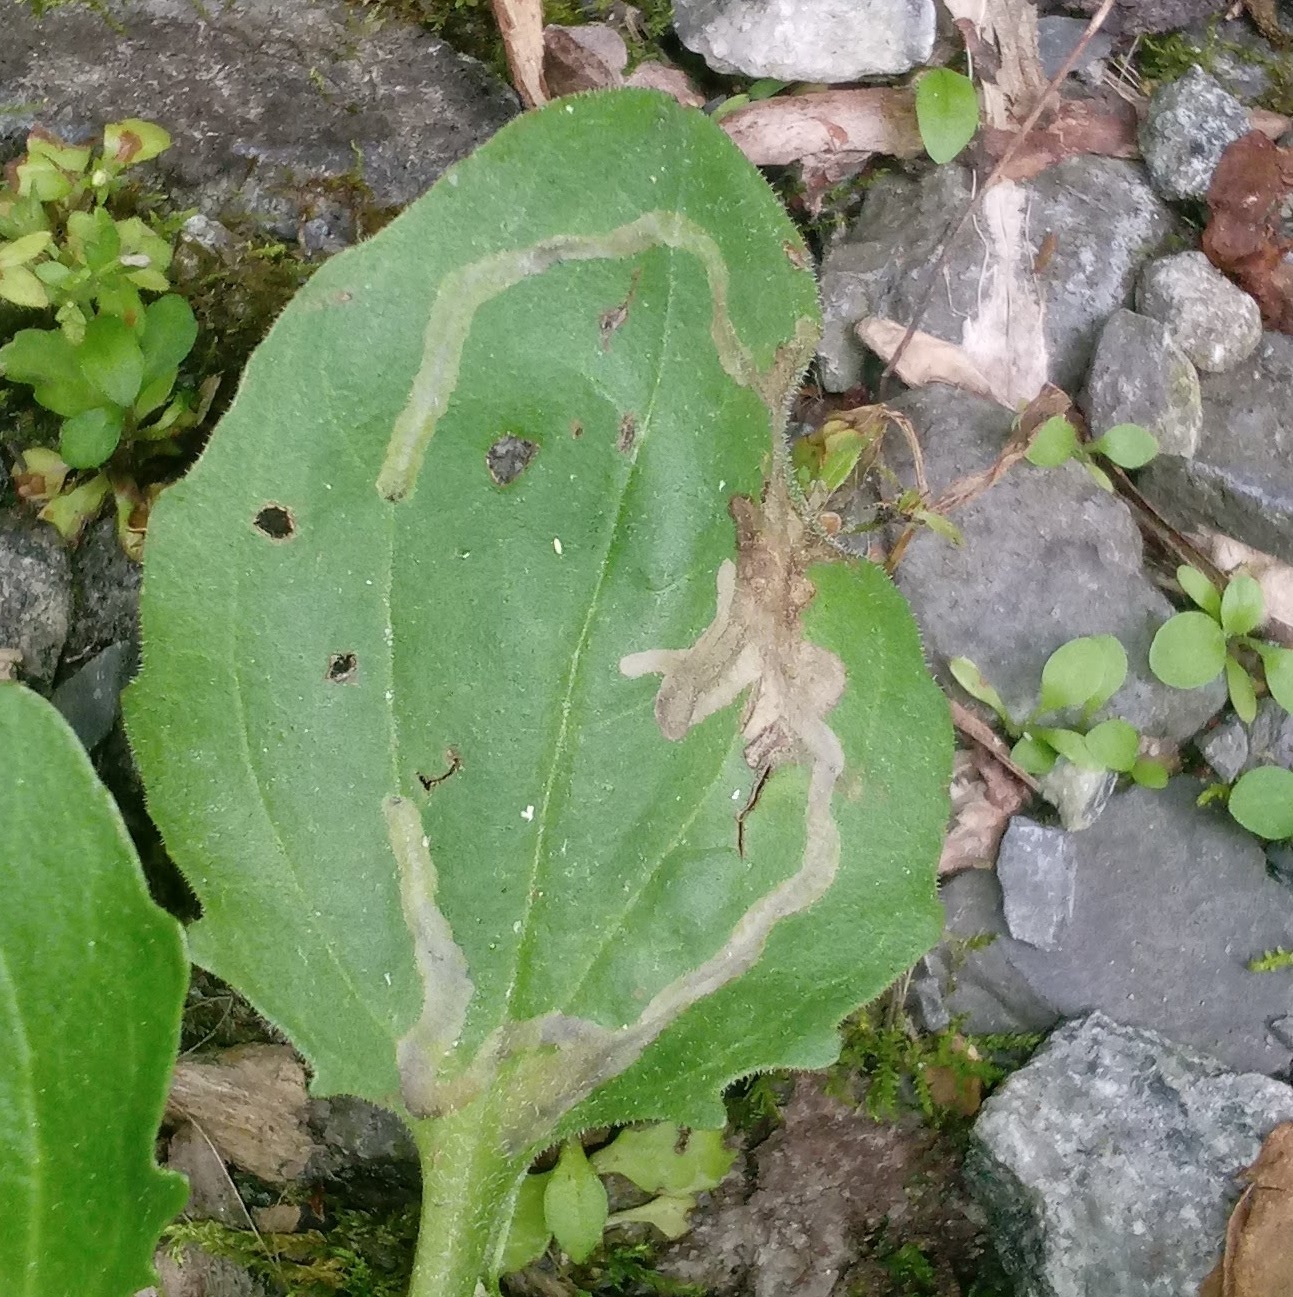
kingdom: Animalia
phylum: Arthropoda
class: Insecta
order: Coleoptera
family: Chrysomelidae
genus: Dibolia
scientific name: Dibolia borealis
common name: Northern plantain flea beetle
